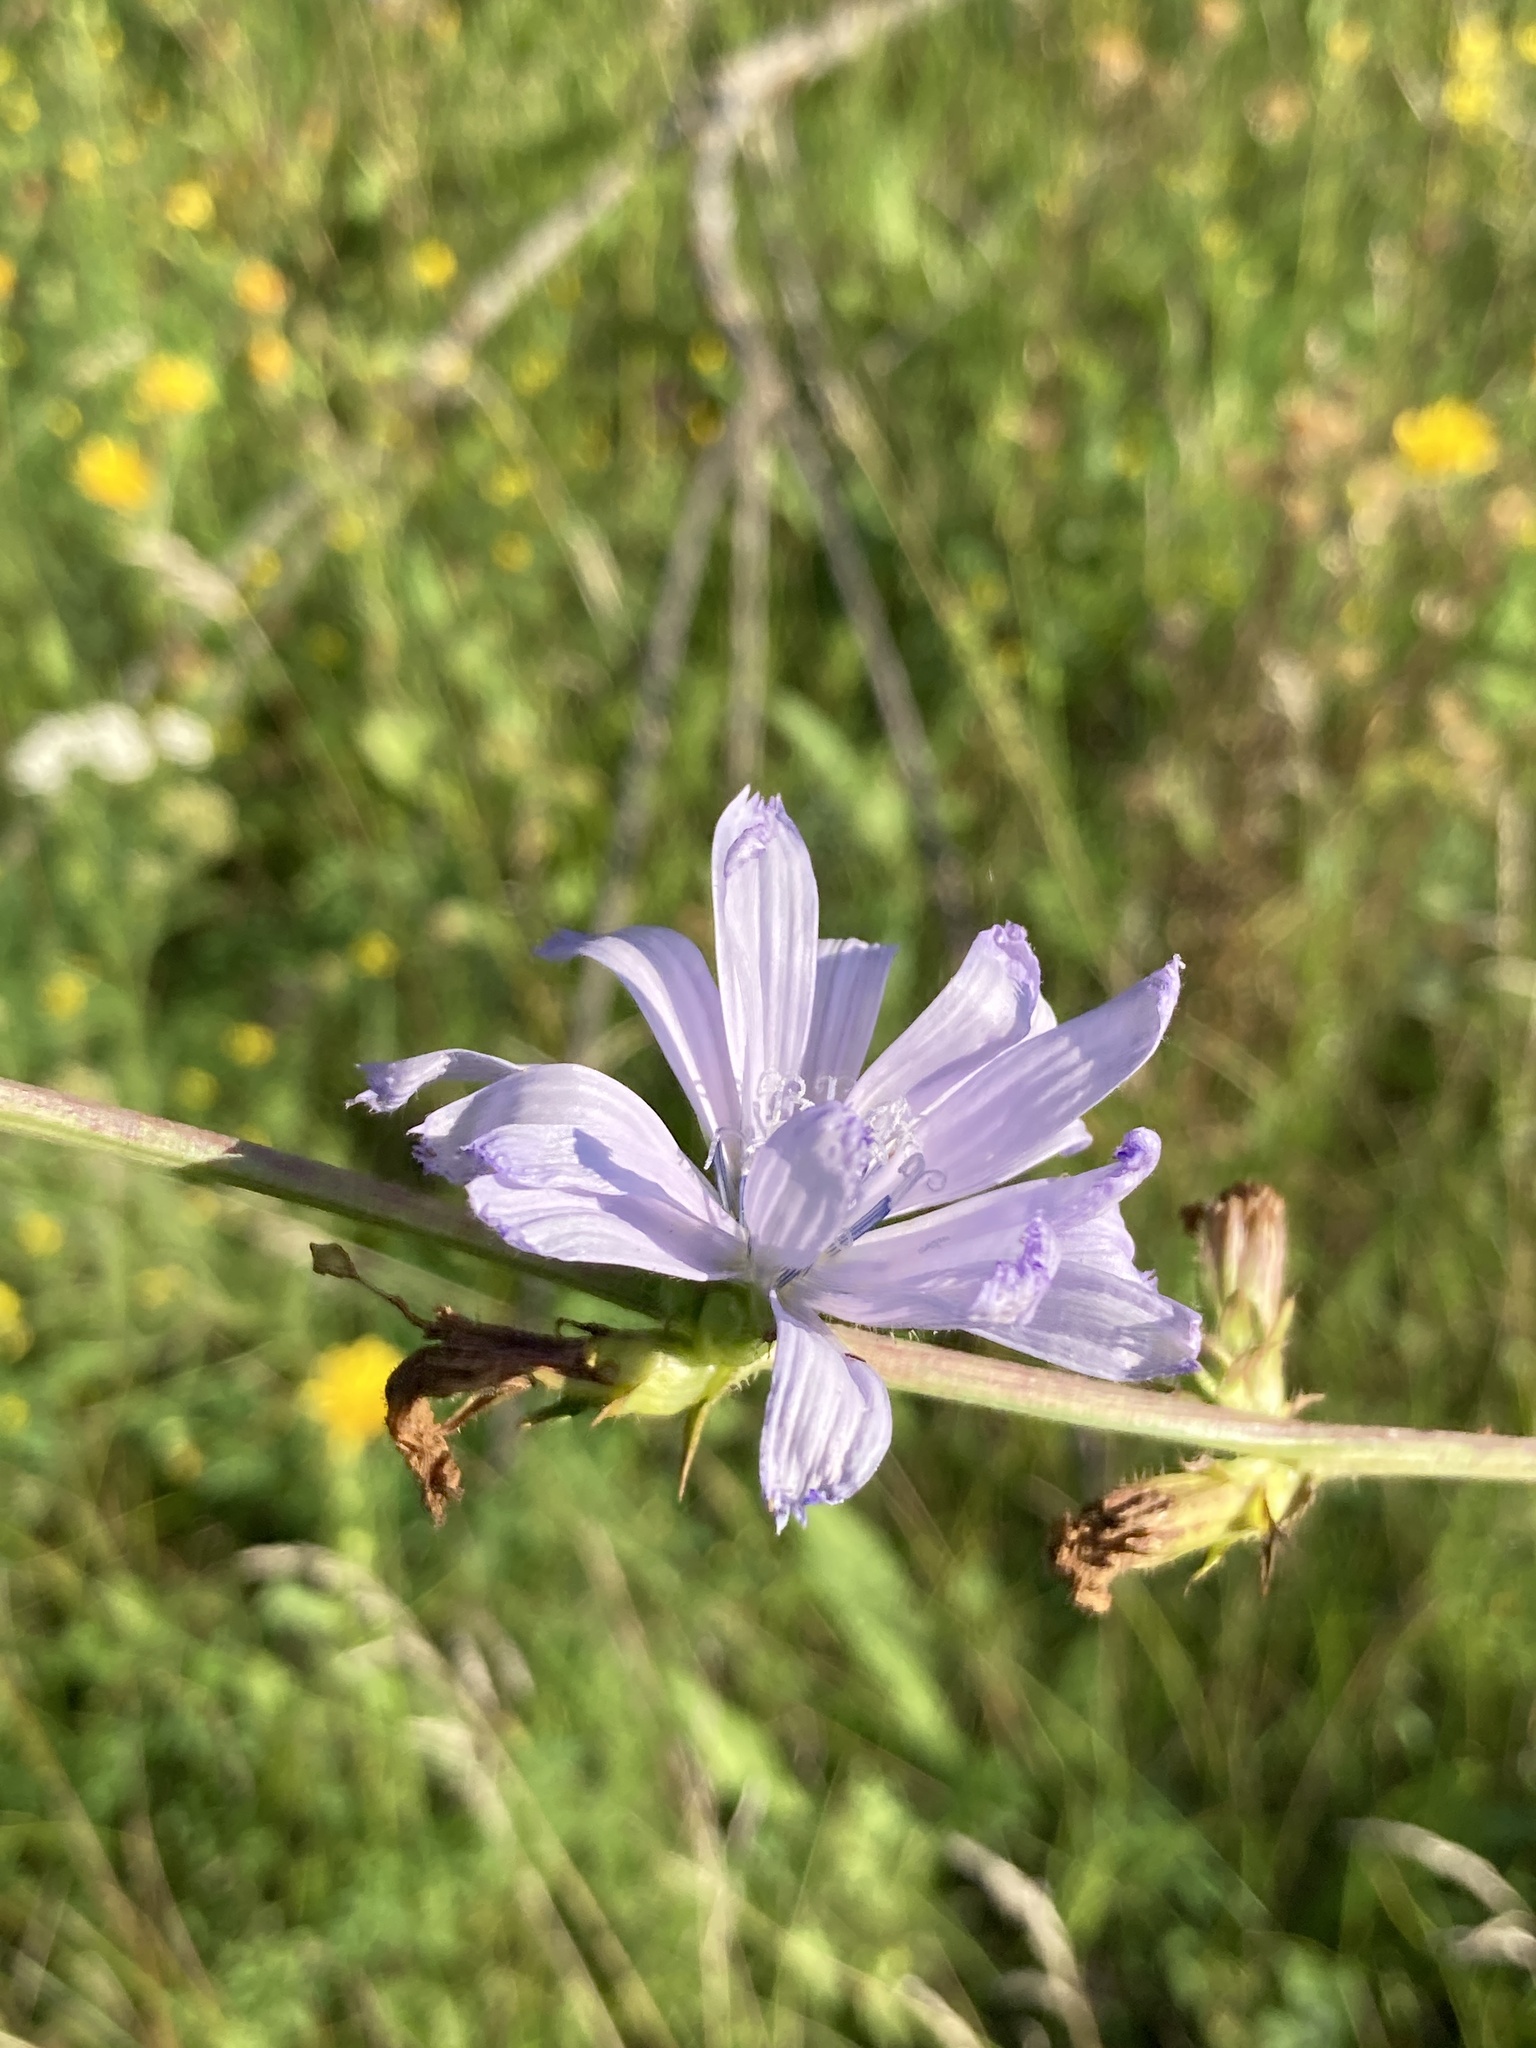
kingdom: Plantae
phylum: Tracheophyta
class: Magnoliopsida
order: Asterales
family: Asteraceae
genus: Cichorium
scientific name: Cichorium intybus
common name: Chicory
